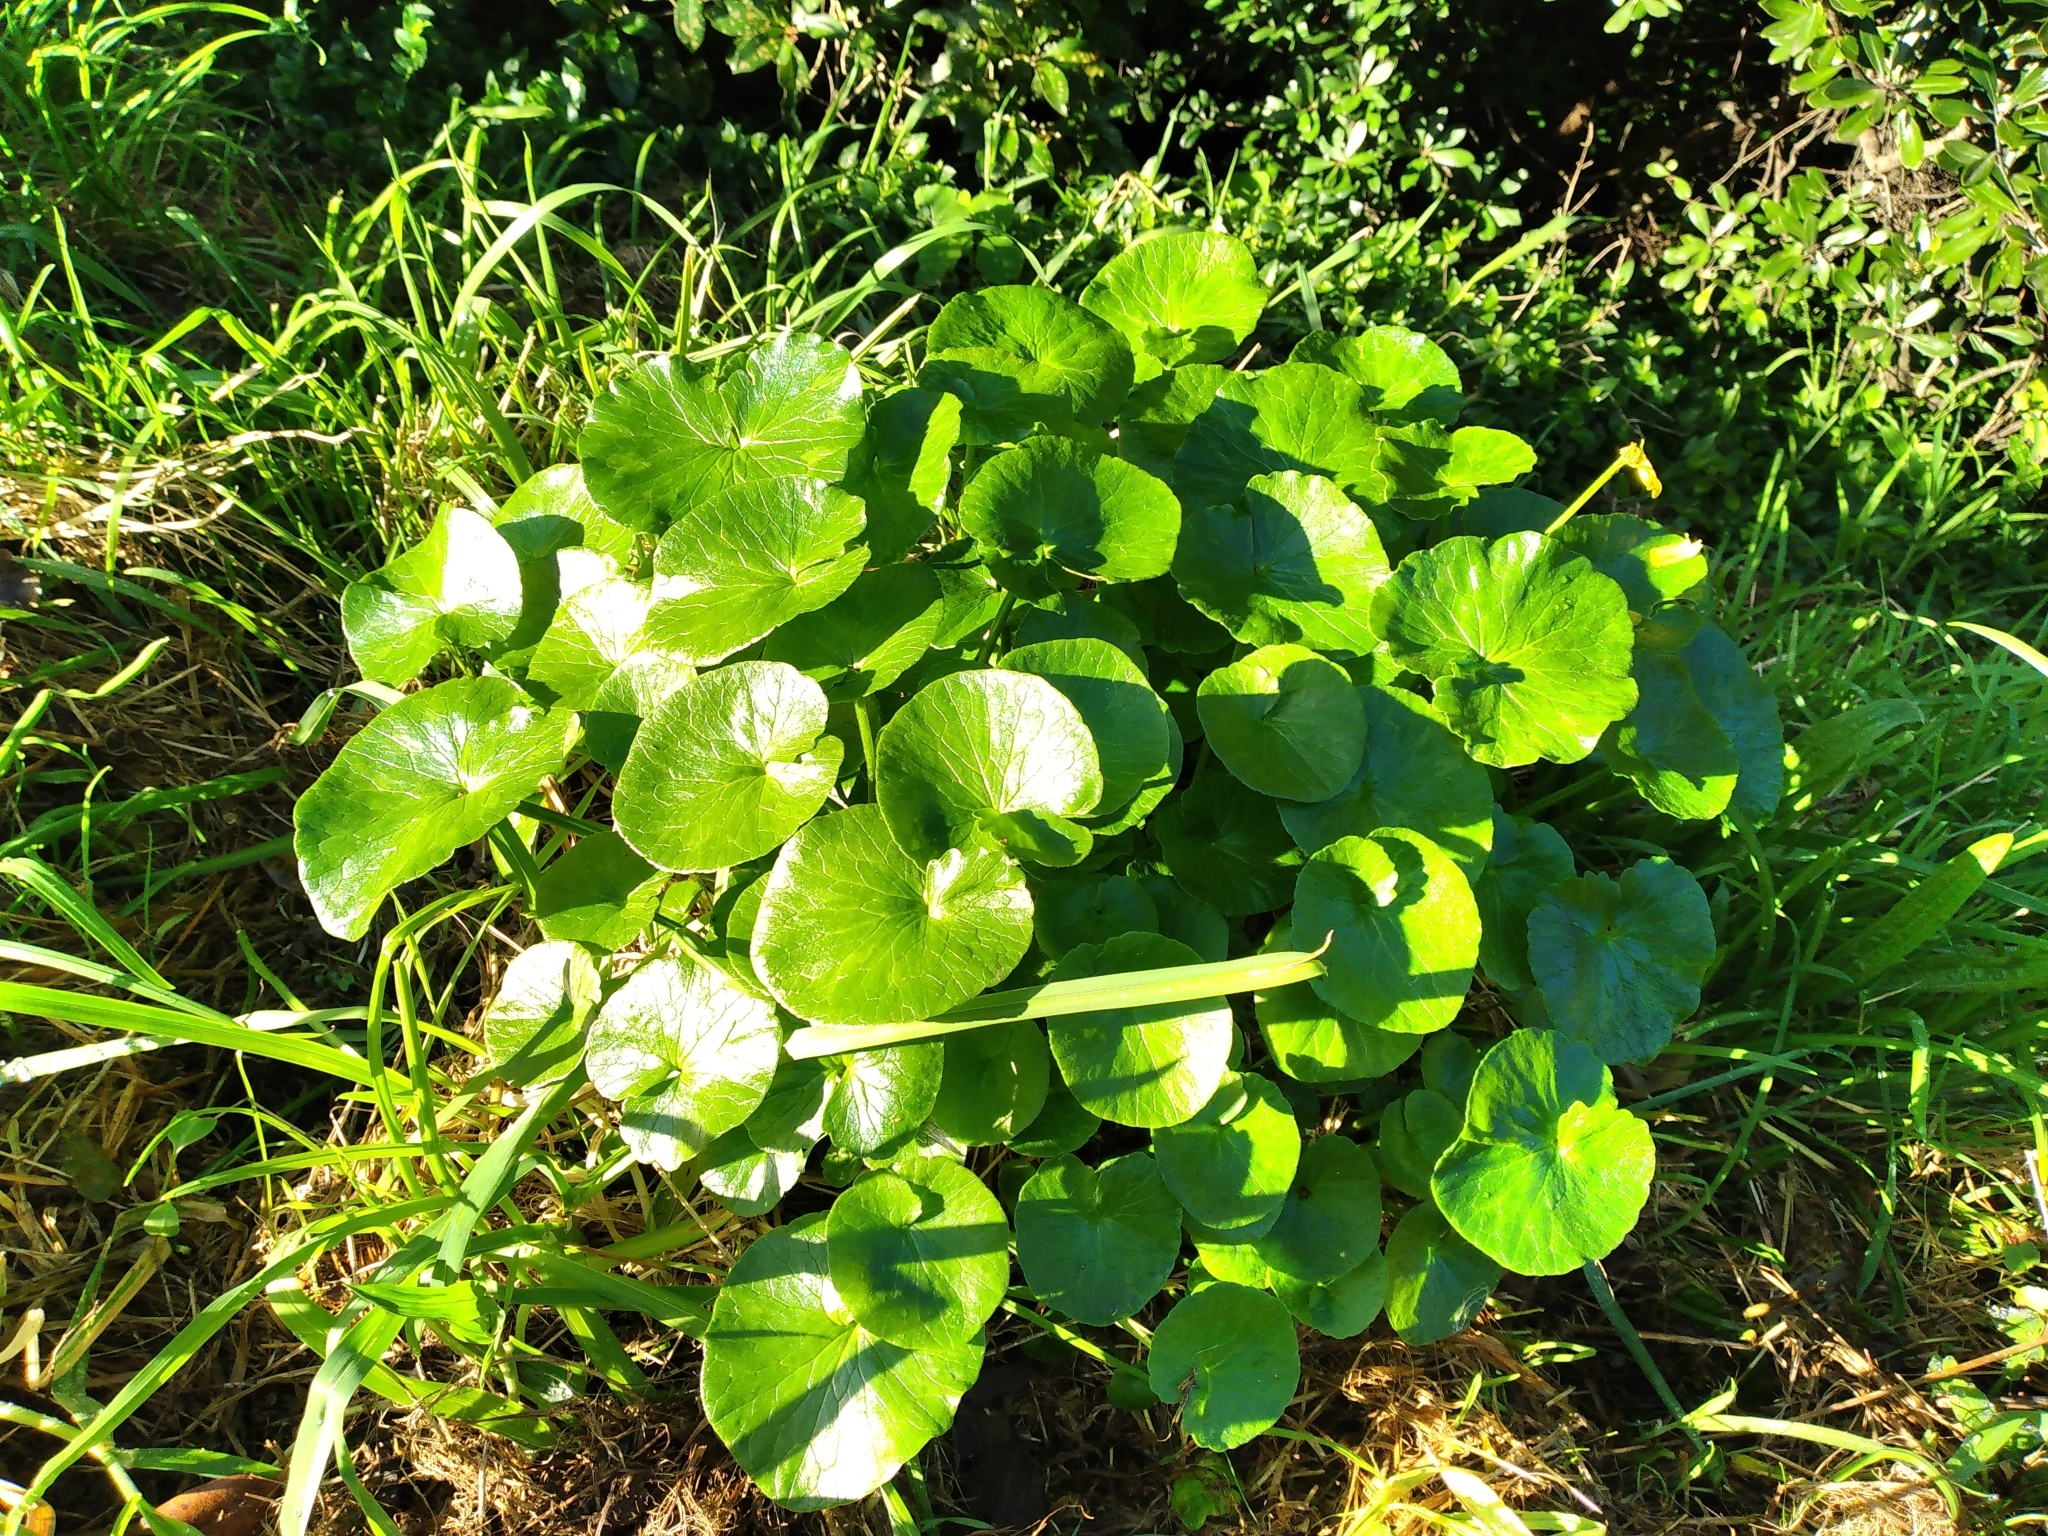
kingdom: Plantae
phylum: Tracheophyta
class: Magnoliopsida
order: Ranunculales
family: Ranunculaceae
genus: Ficaria
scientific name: Ficaria verna
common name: Lesser celandine
